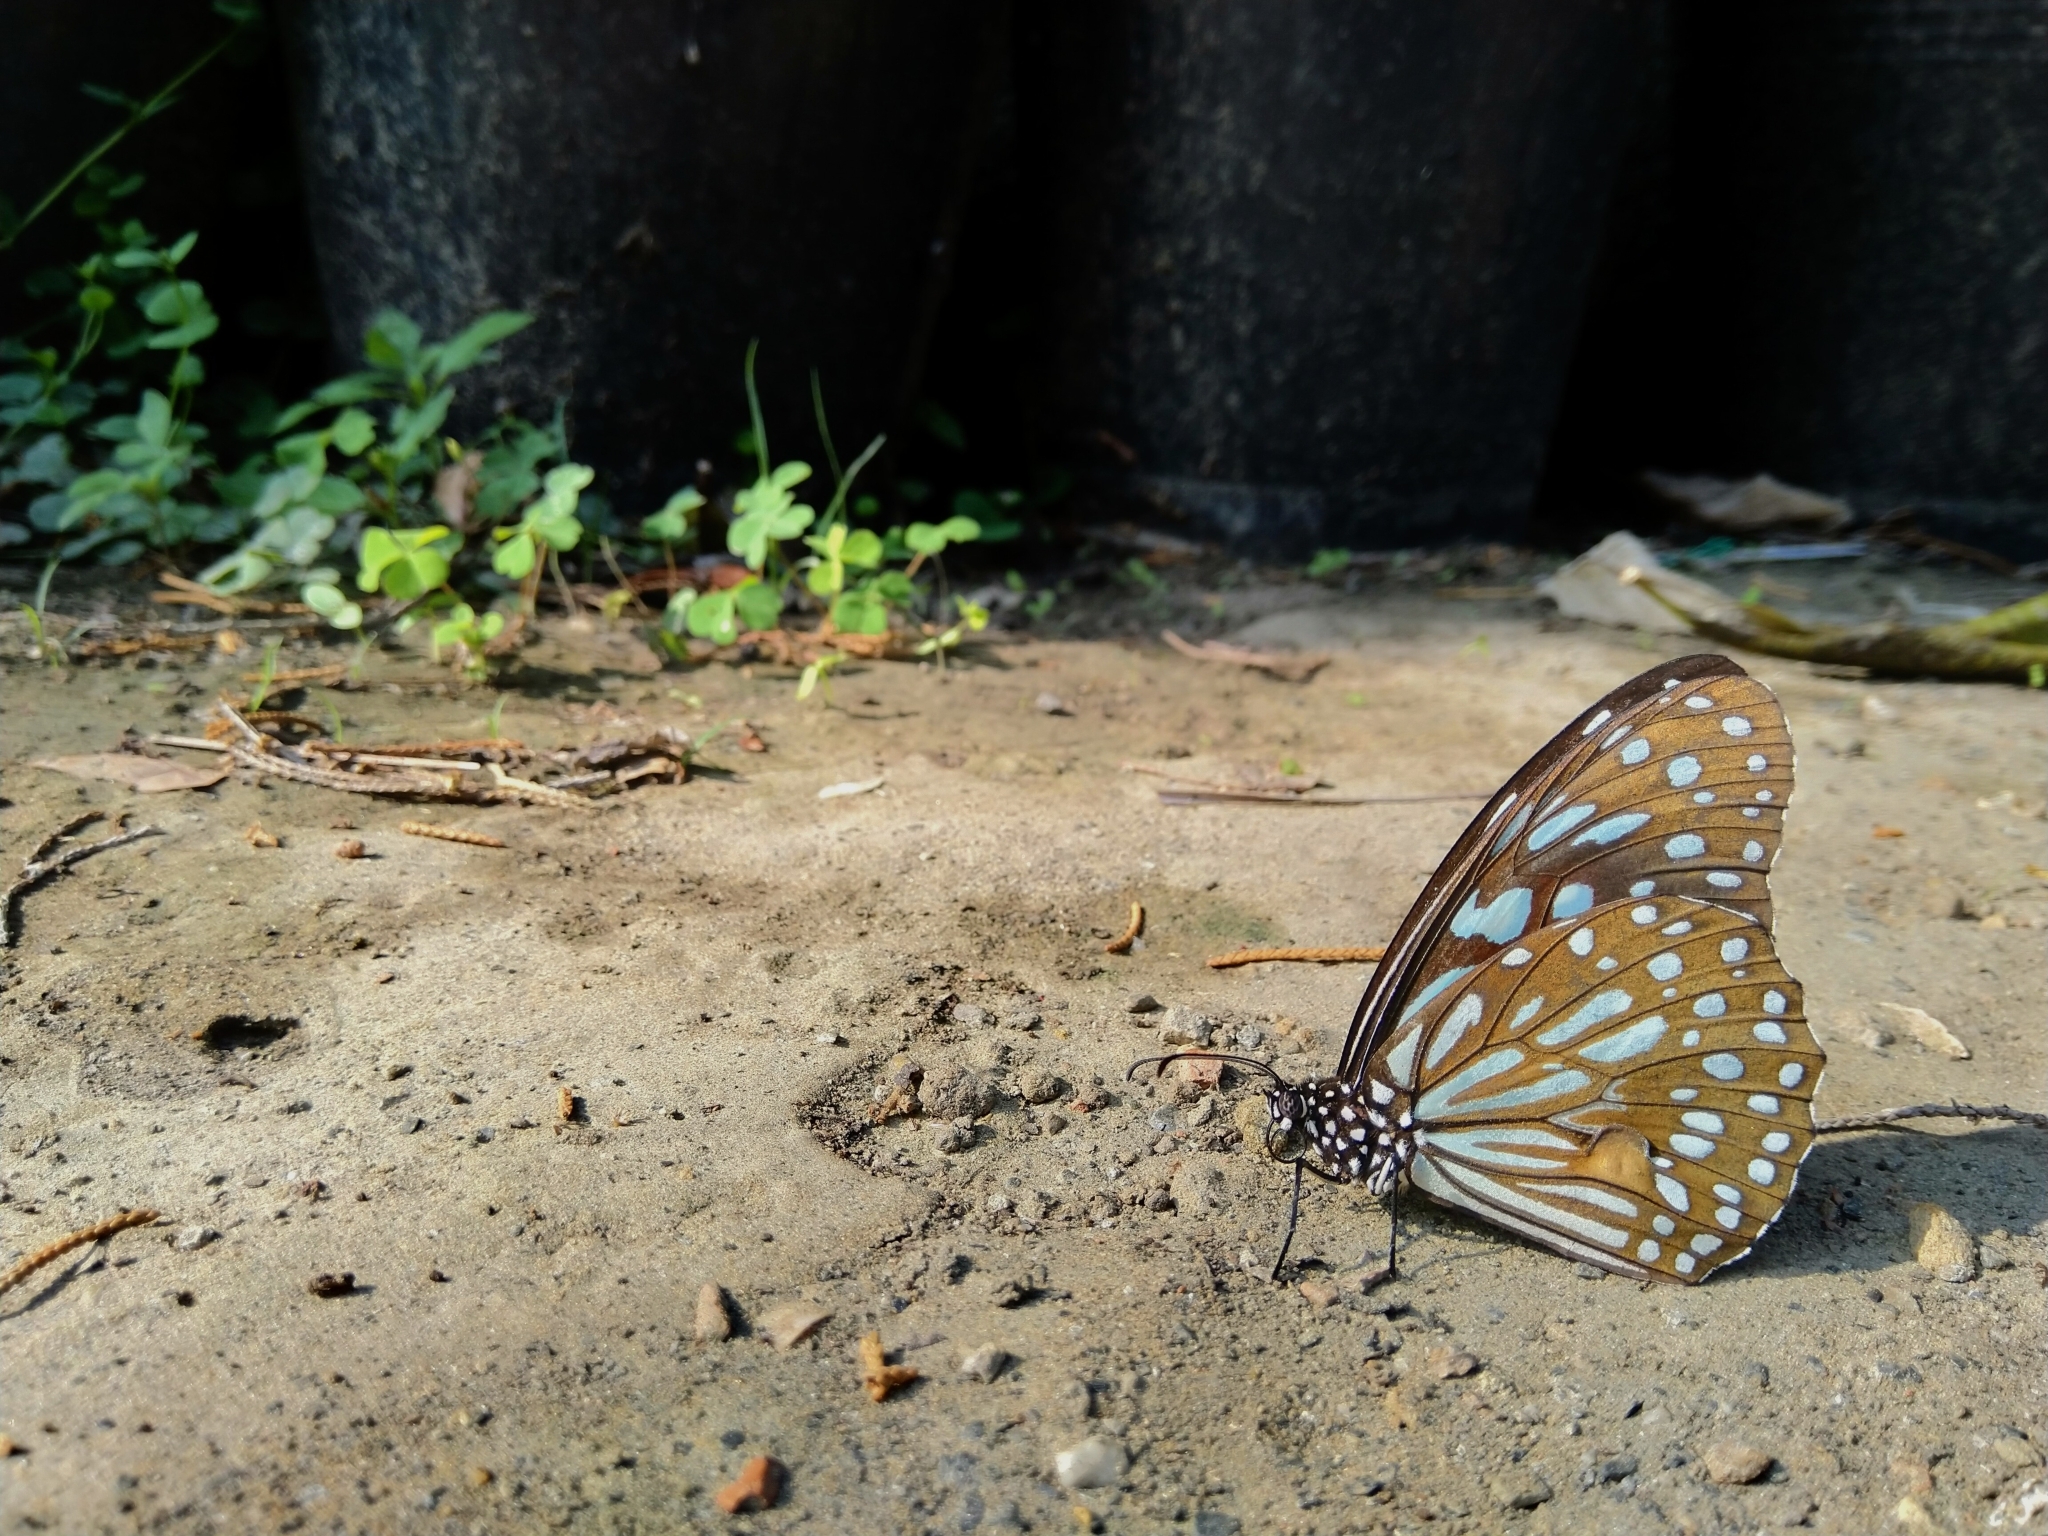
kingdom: Animalia
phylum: Arthropoda
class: Insecta
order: Lepidoptera
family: Nymphalidae
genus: Tirumala
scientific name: Tirumala limniace
